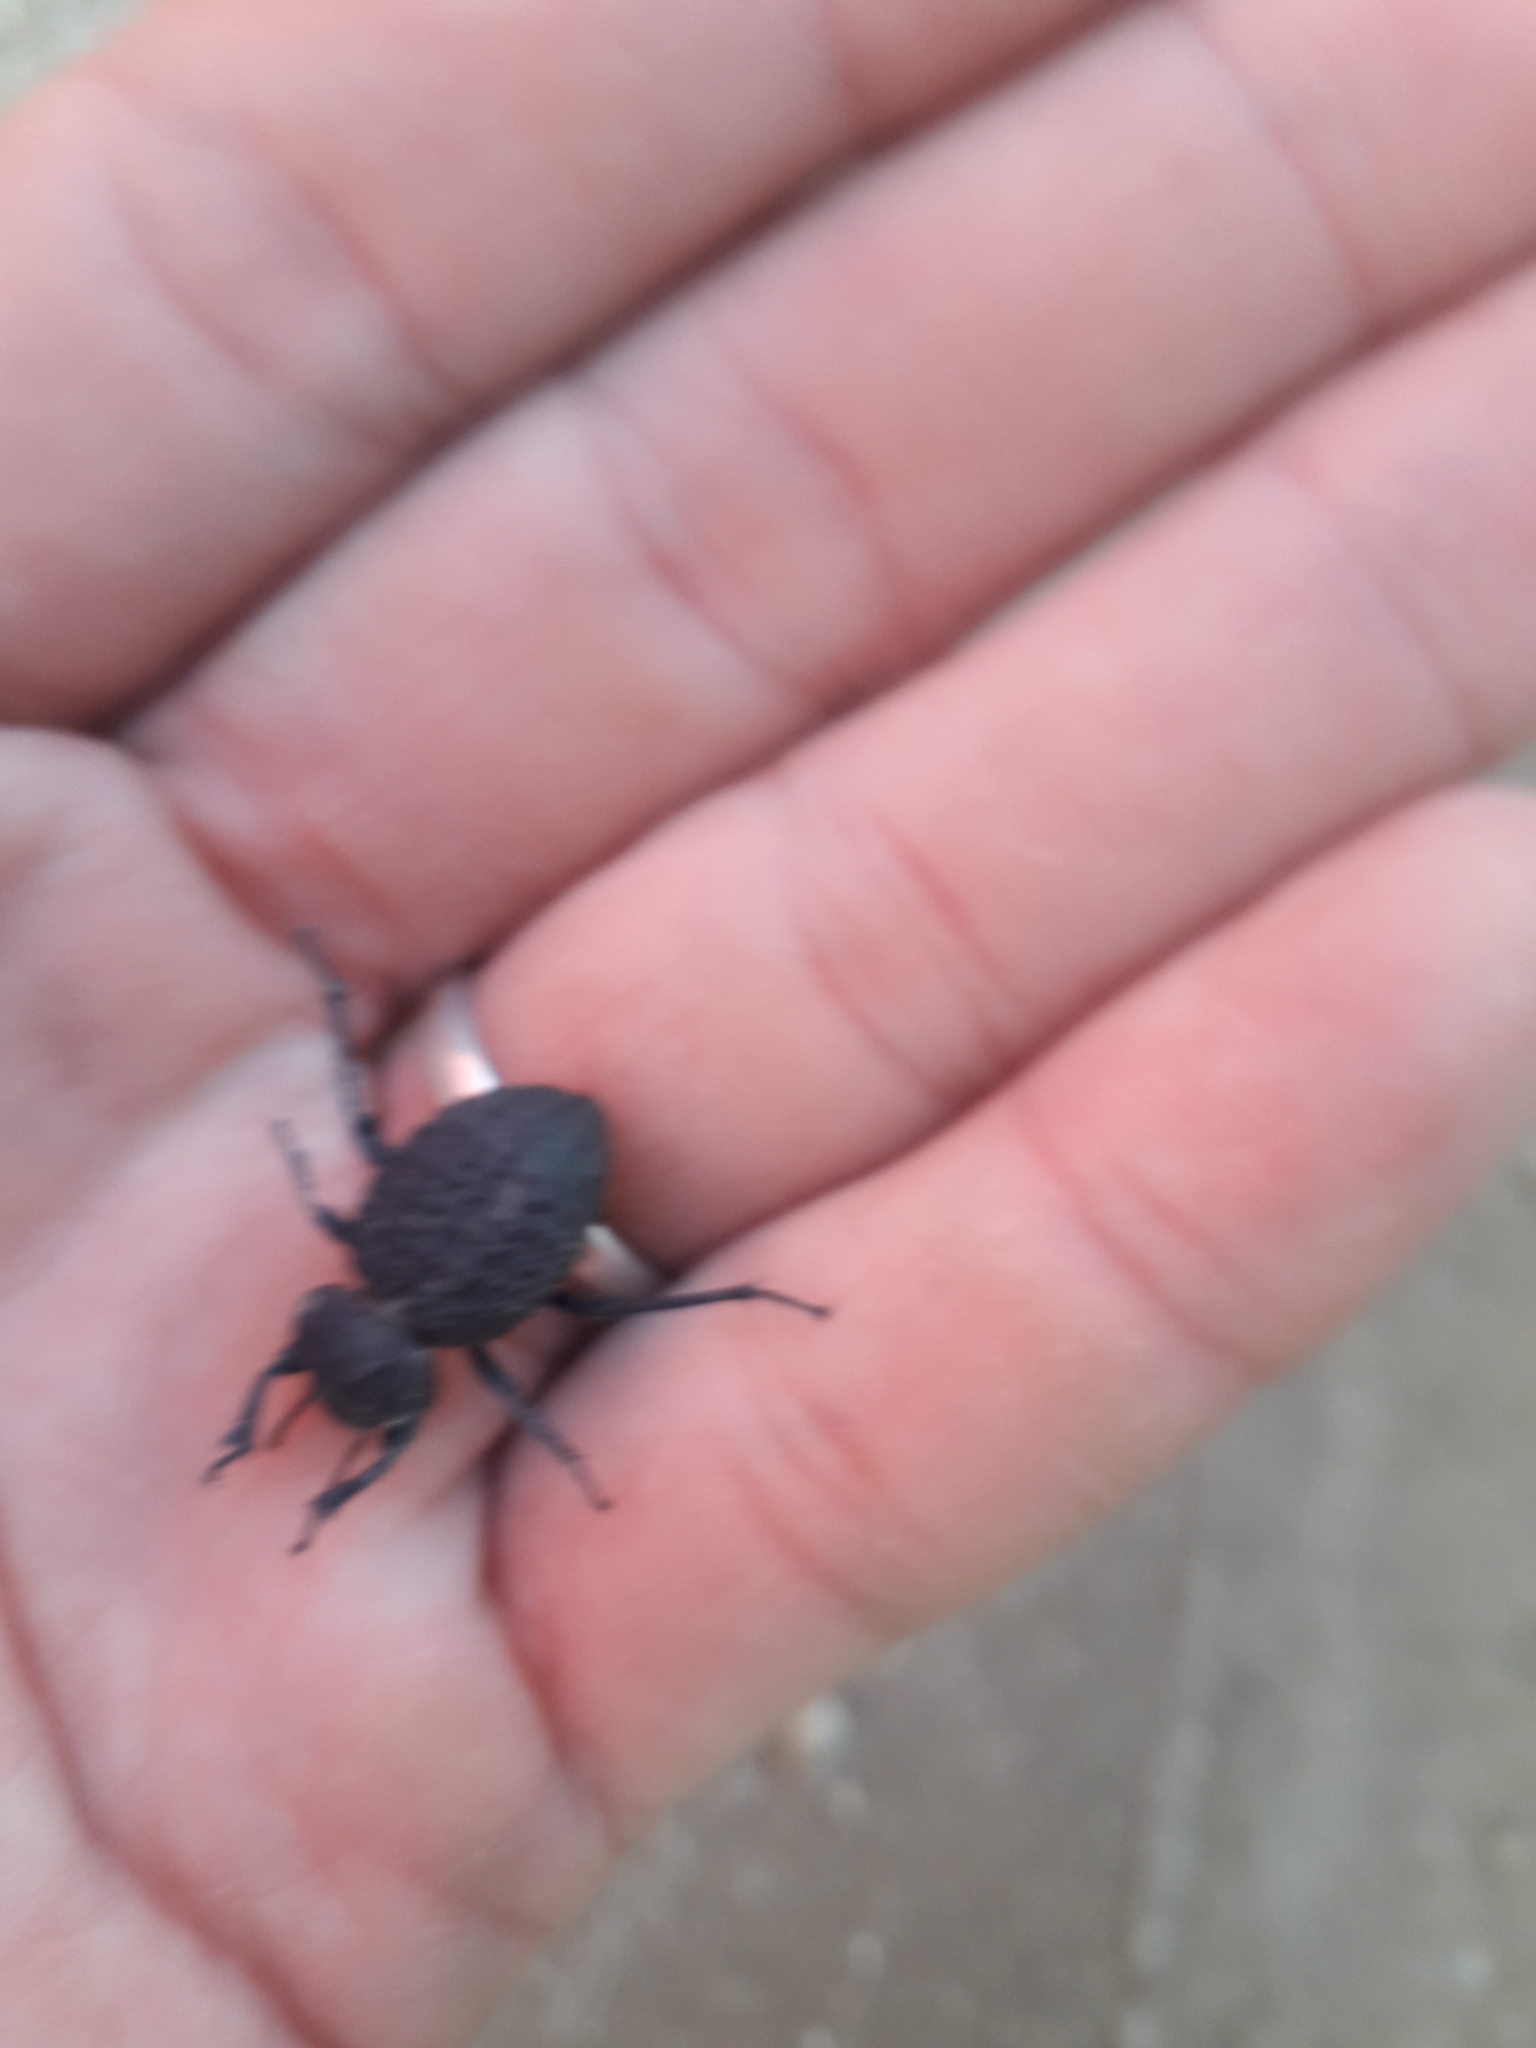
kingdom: Animalia
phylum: Arthropoda
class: Insecta
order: Coleoptera
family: Tenebrionidae
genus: Scotobius
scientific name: Scotobius pilularius
